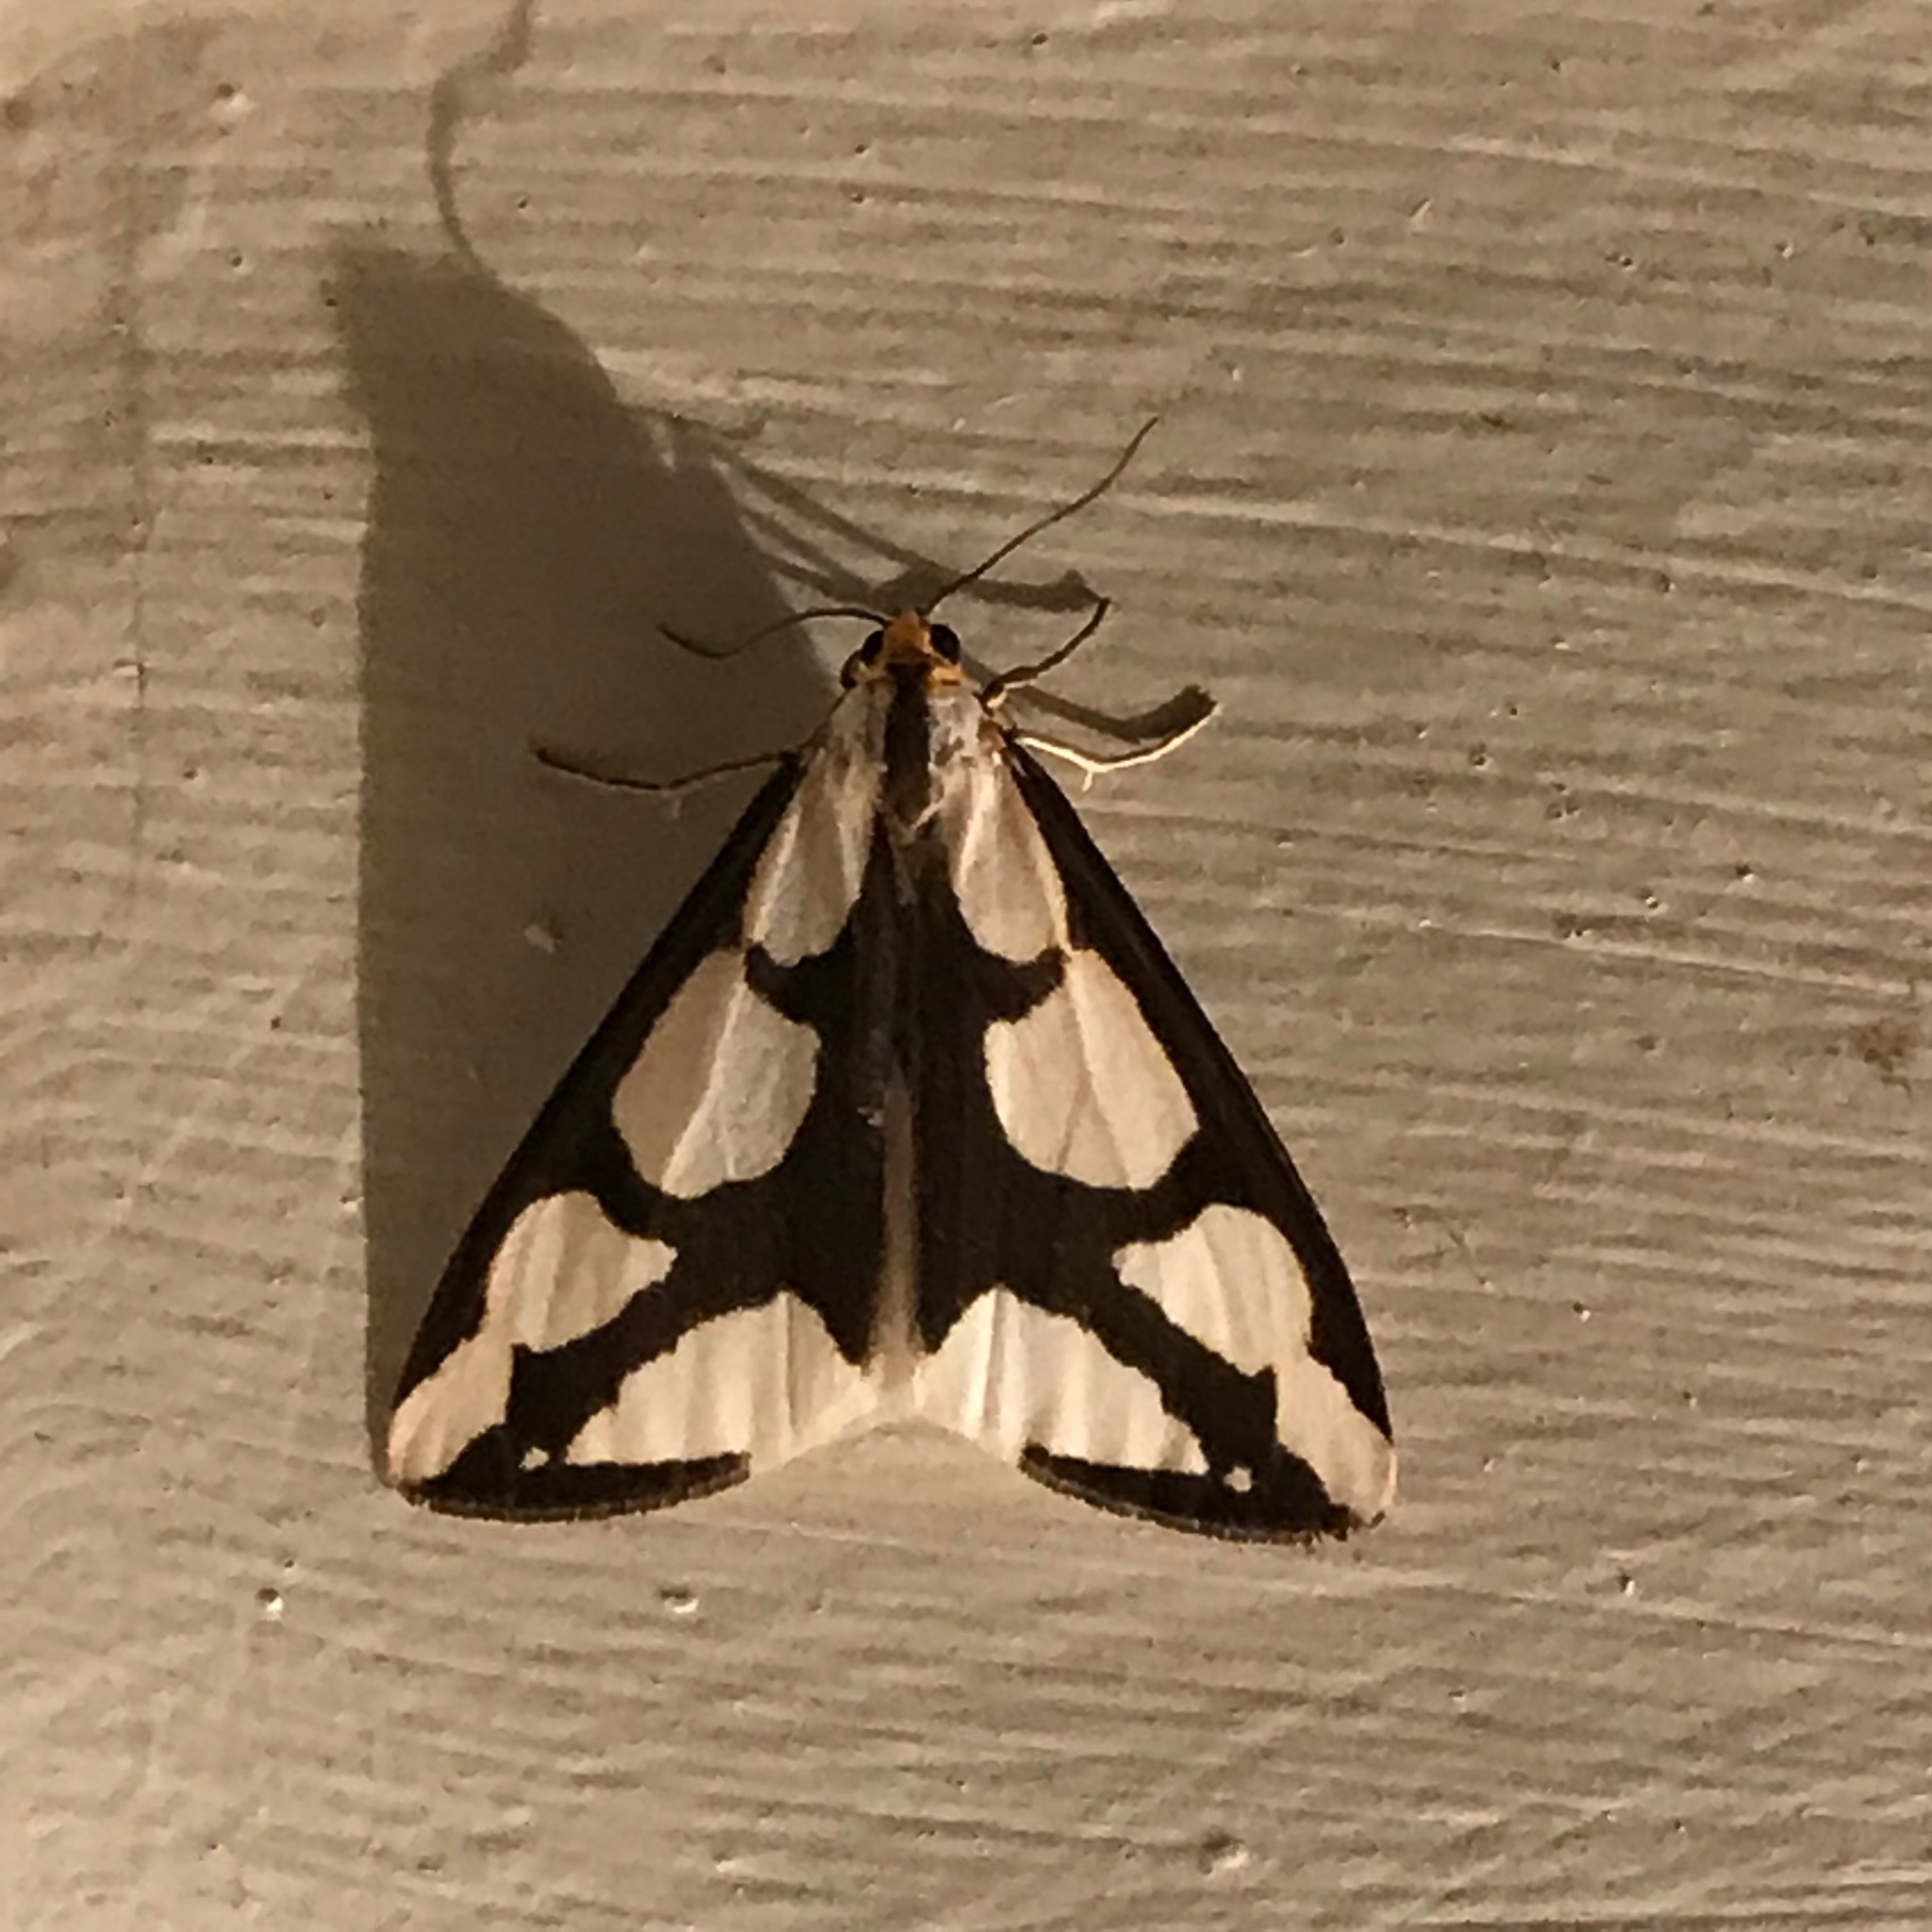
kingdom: Animalia
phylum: Arthropoda
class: Insecta
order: Lepidoptera
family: Erebidae
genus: Haploa
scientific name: Haploa lecontei
